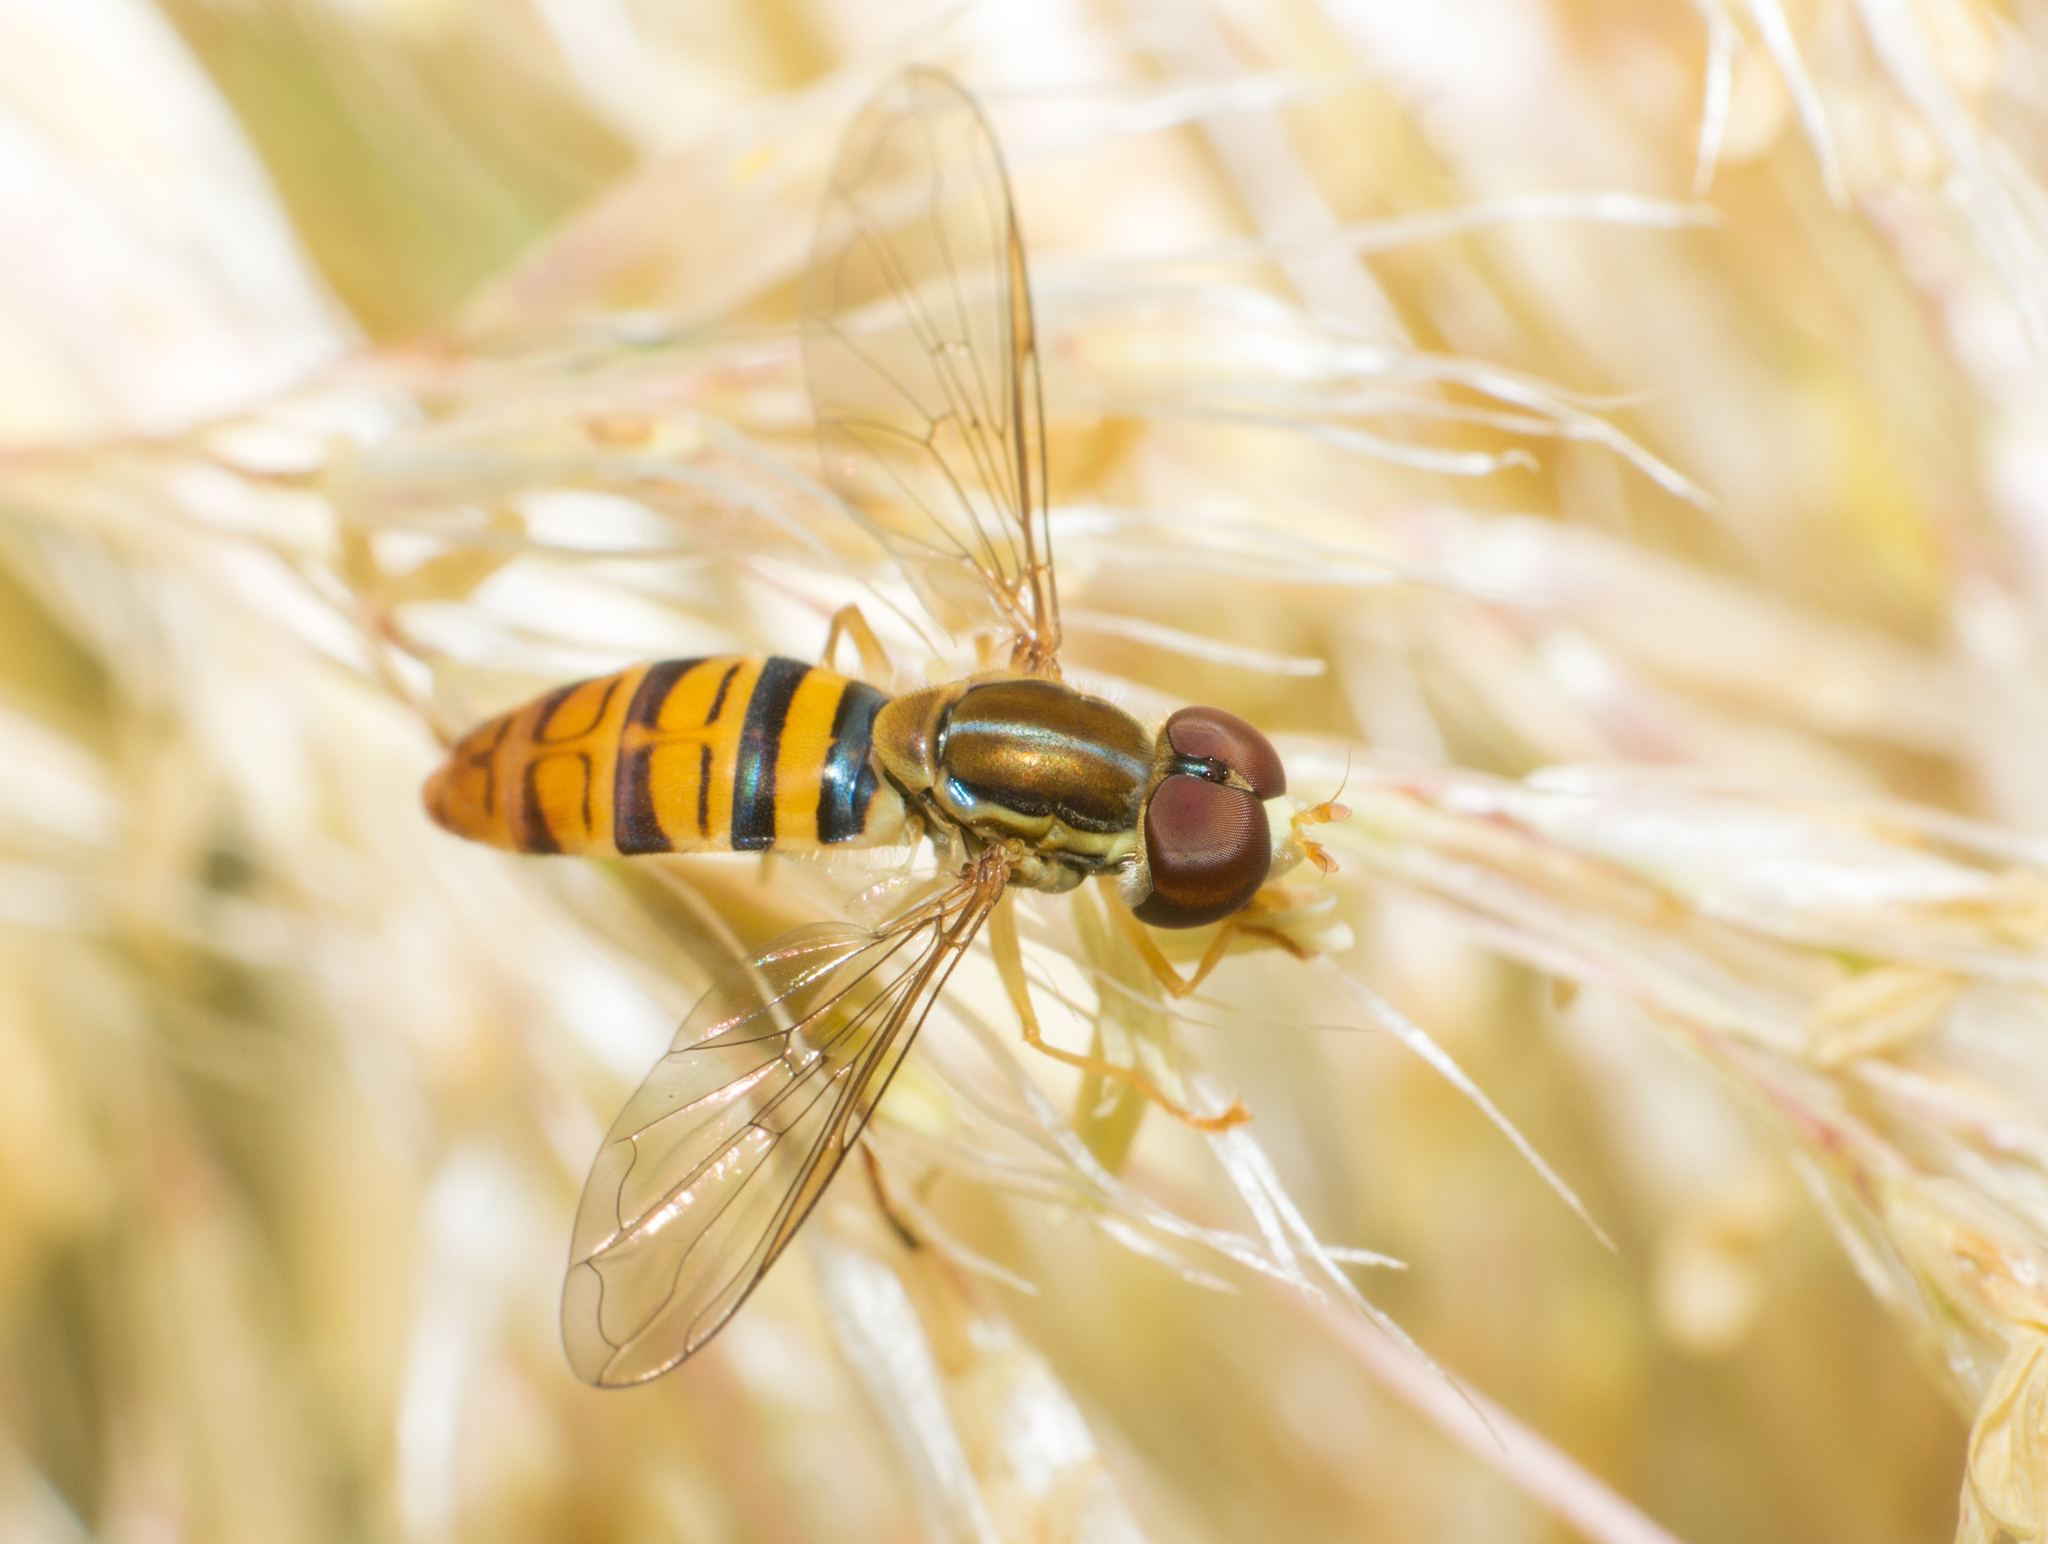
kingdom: Animalia
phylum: Arthropoda
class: Insecta
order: Diptera
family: Syrphidae
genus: Toxomerus
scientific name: Toxomerus politus
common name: Maize calligrapher
